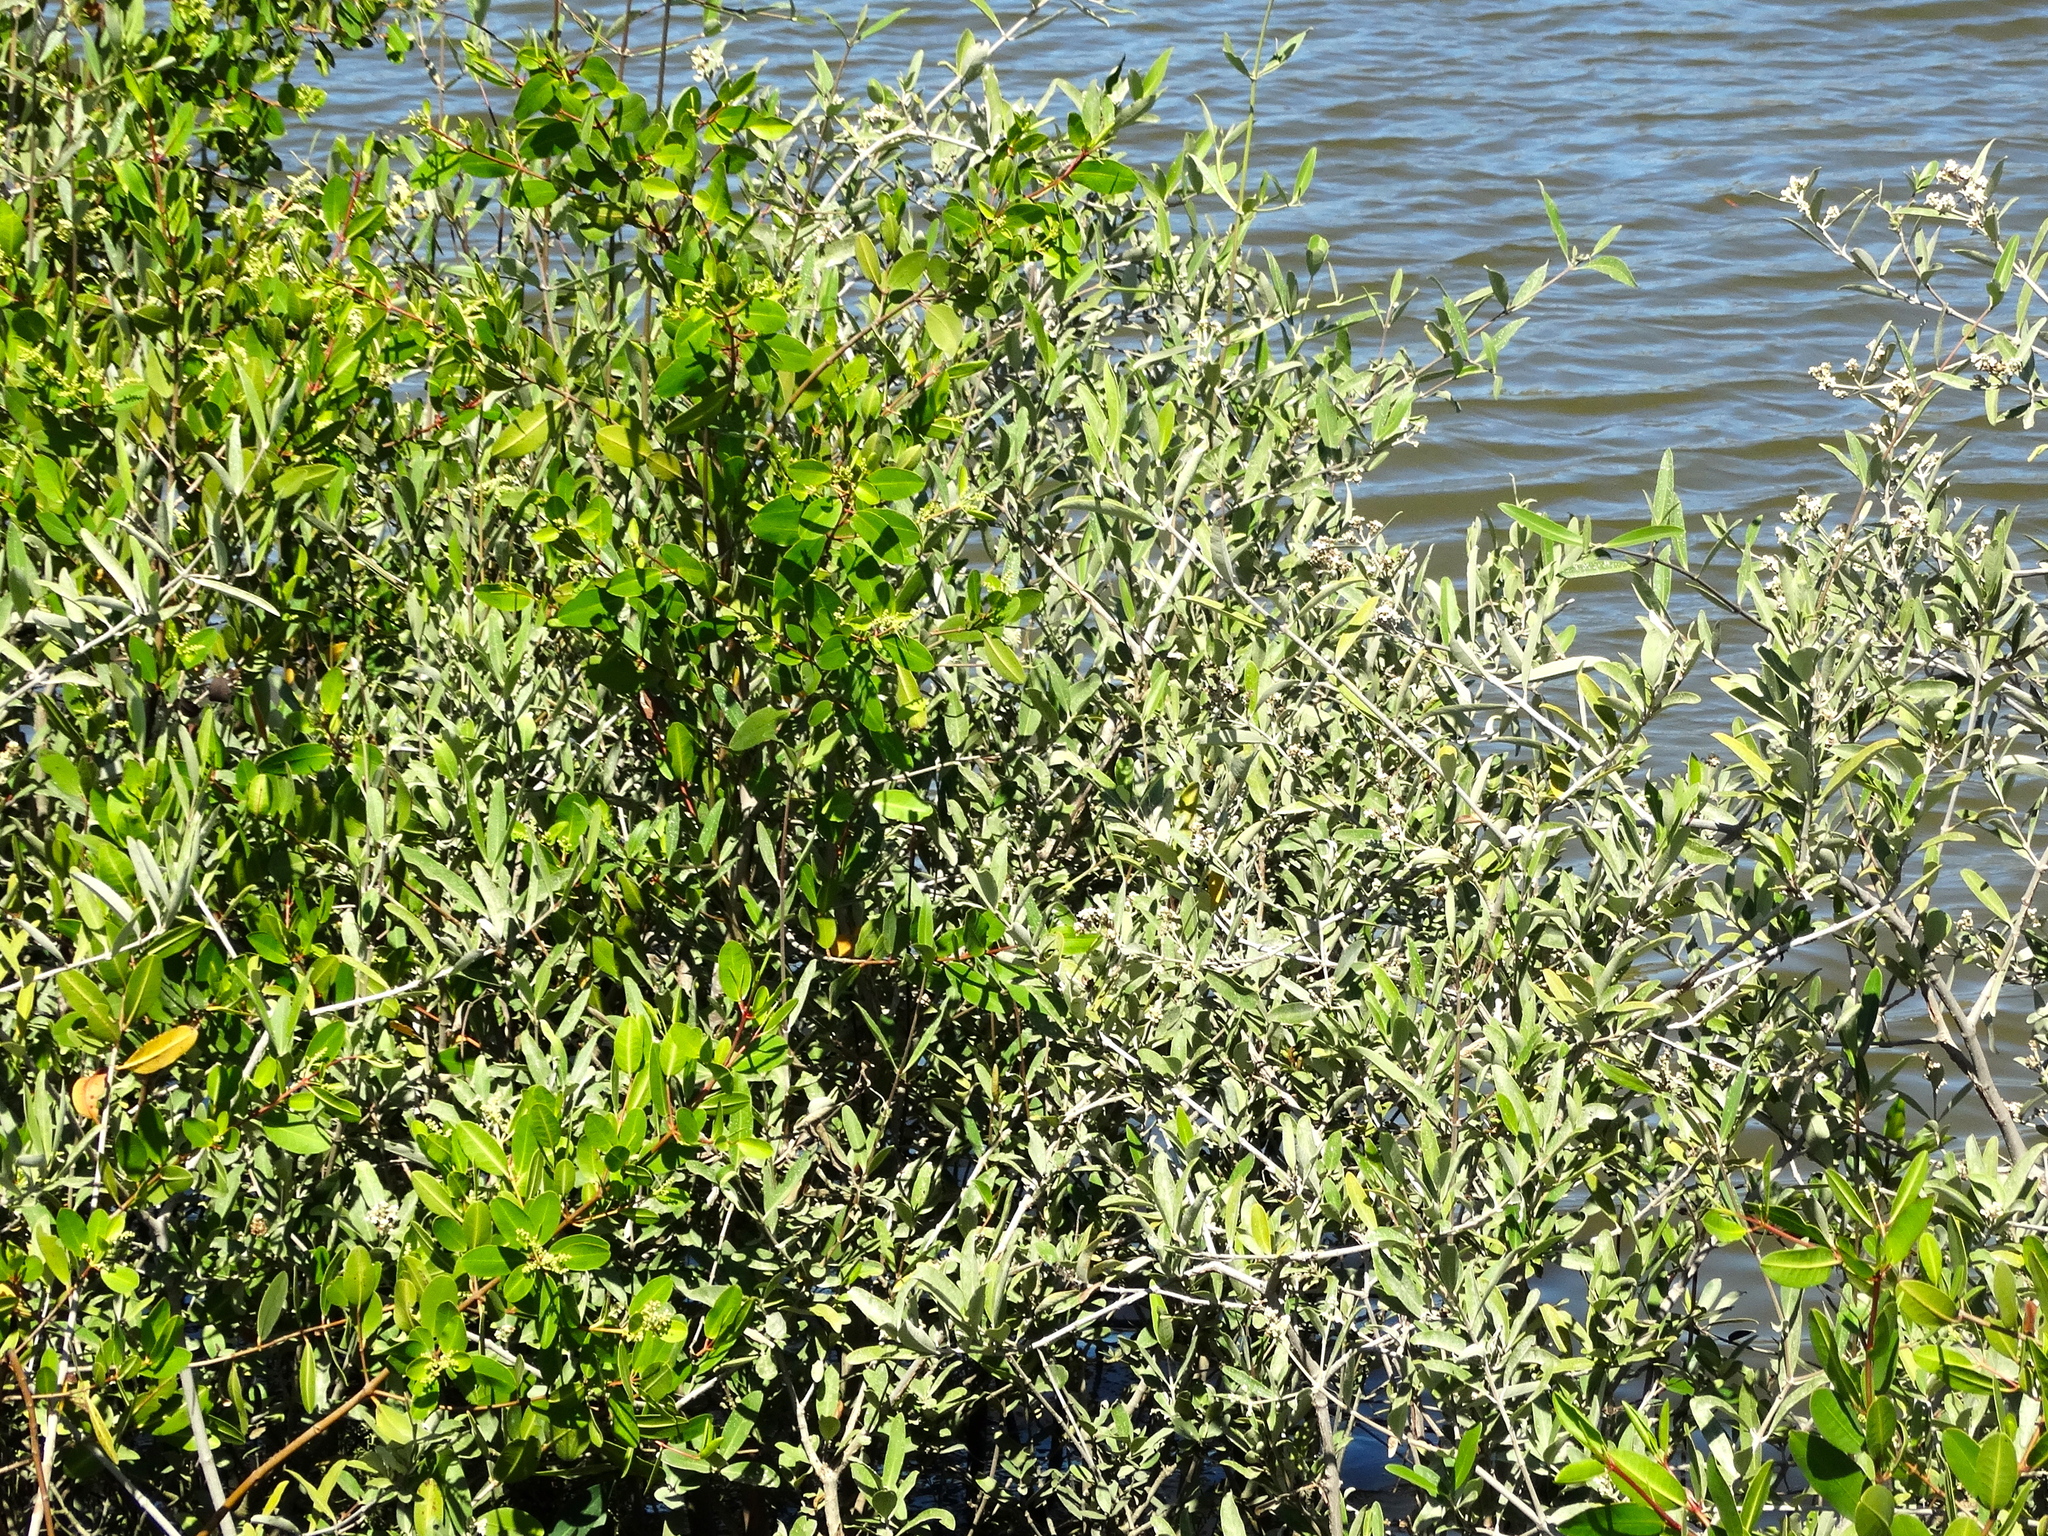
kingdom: Plantae
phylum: Tracheophyta
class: Magnoliopsida
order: Myrtales
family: Combretaceae
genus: Laguncularia
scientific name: Laguncularia racemosa
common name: White mangrove
